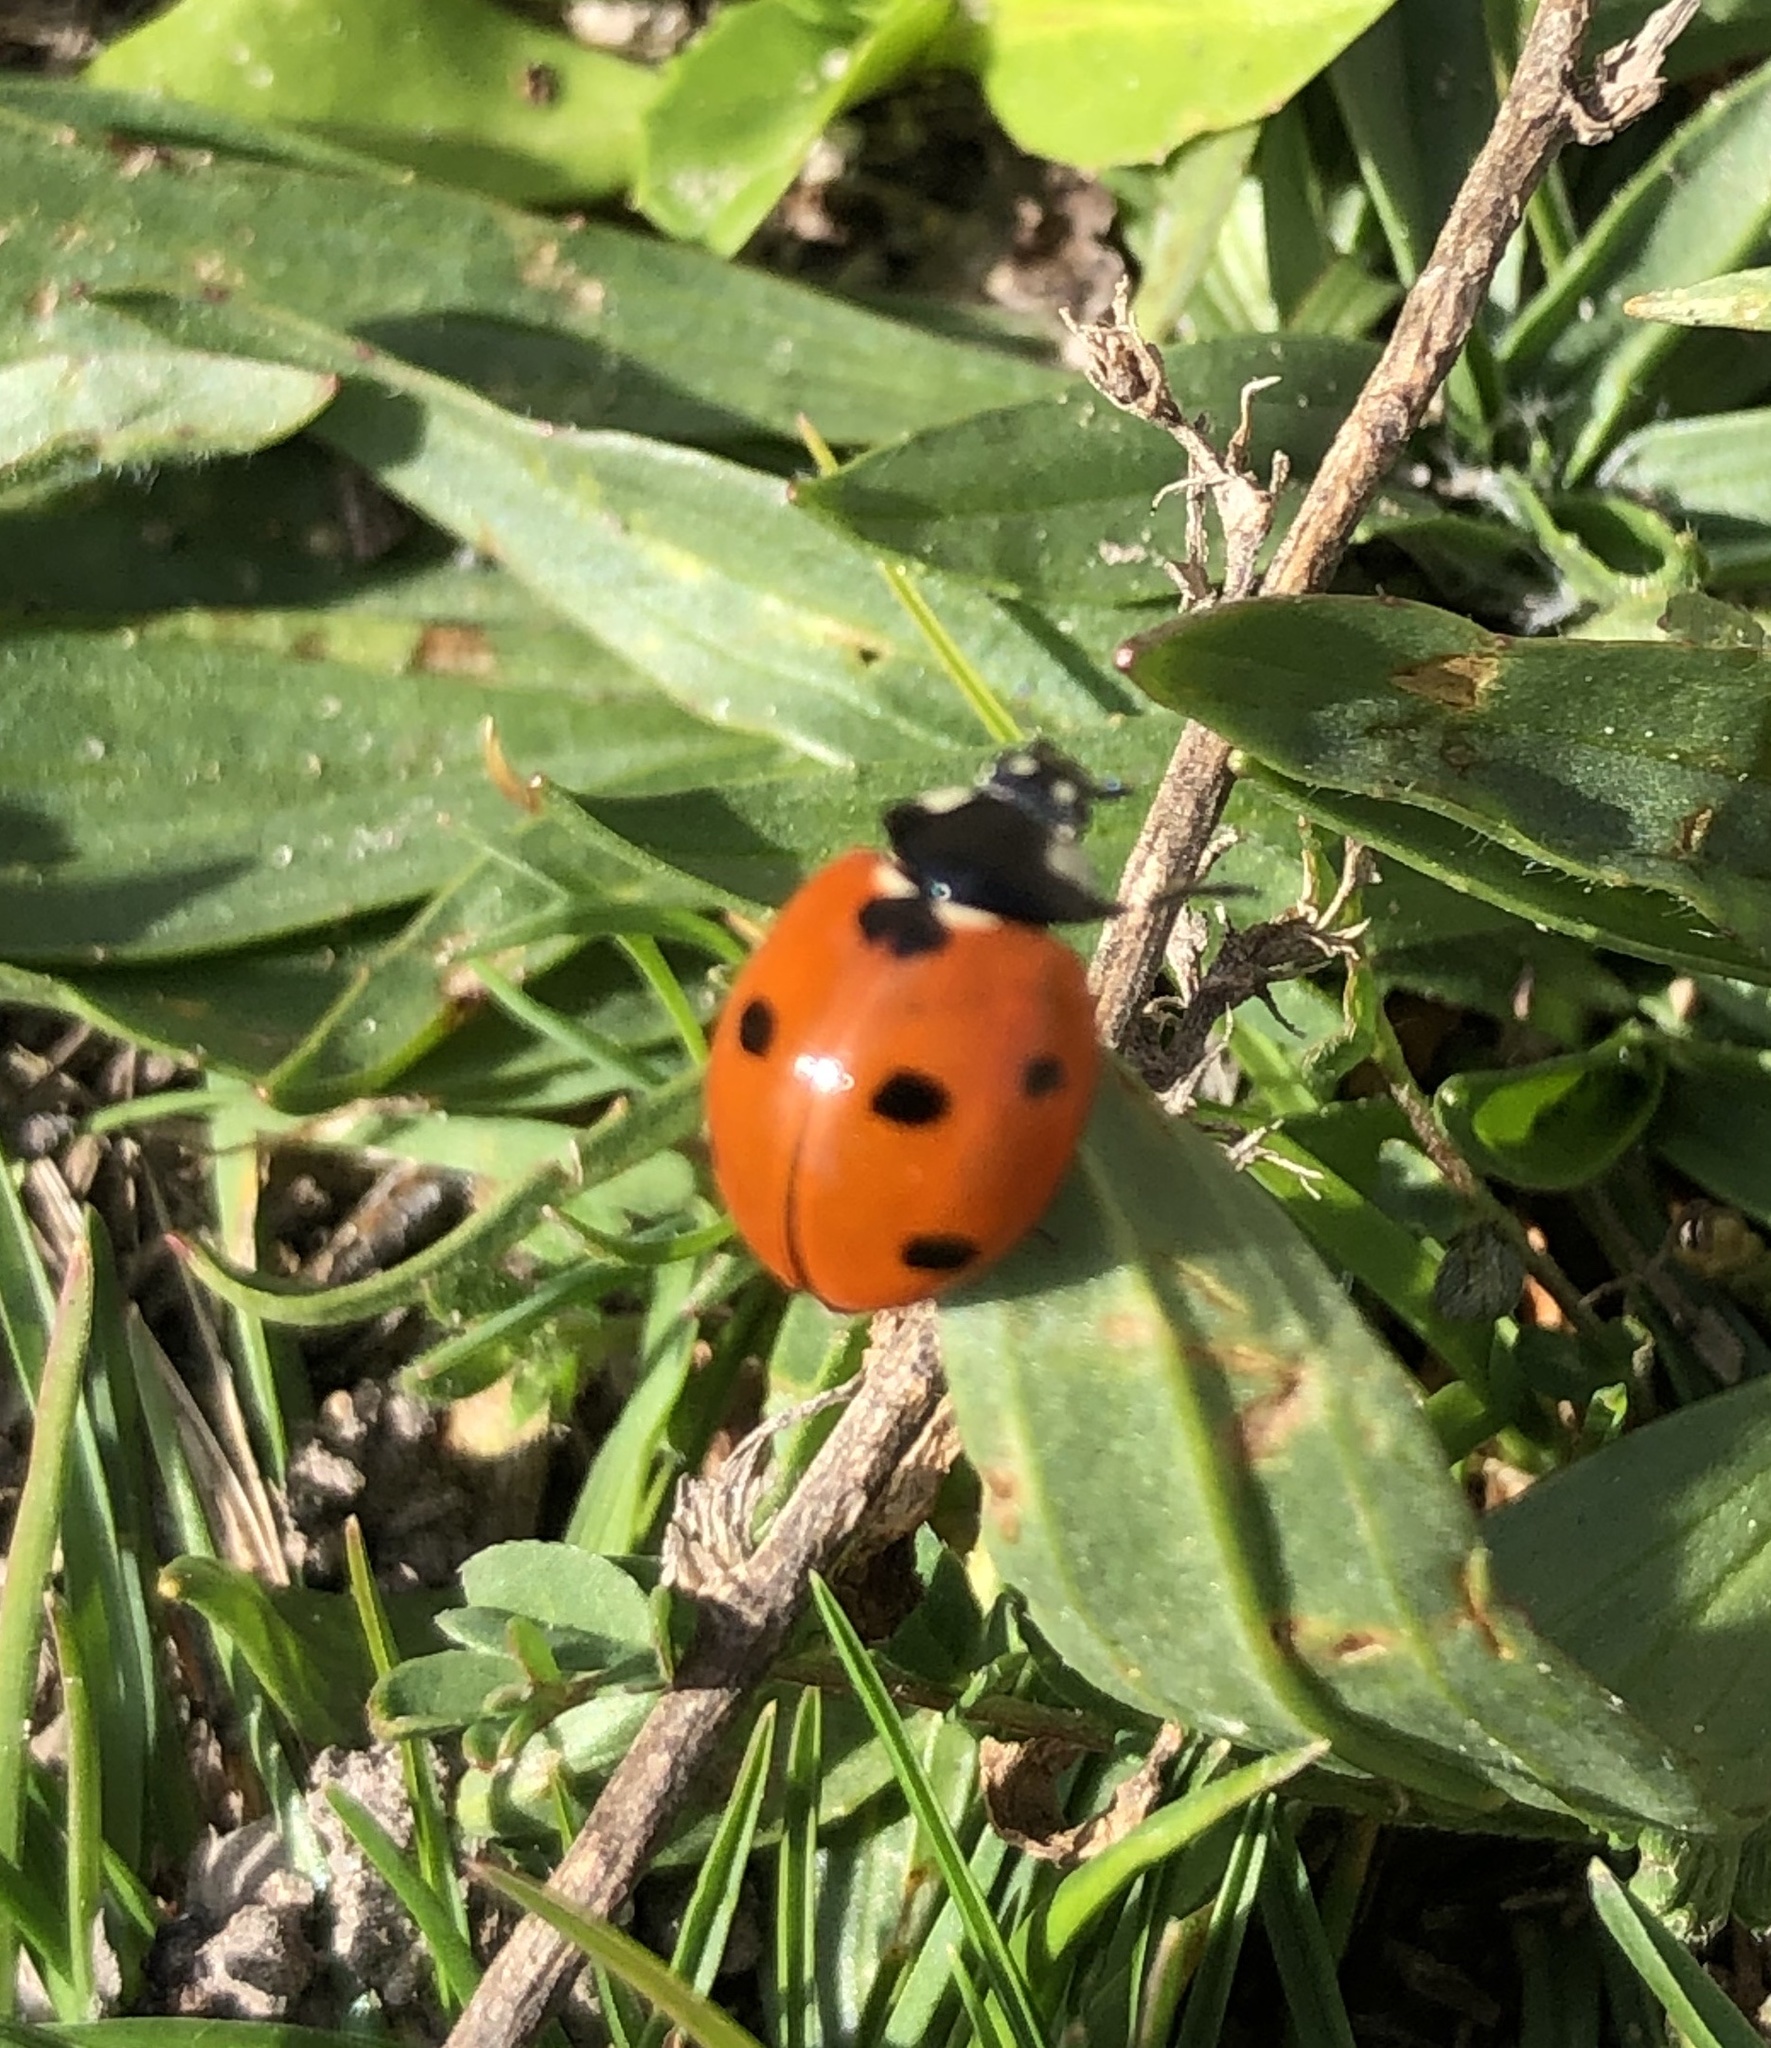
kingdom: Animalia
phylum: Arthropoda
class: Insecta
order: Coleoptera
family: Coccinellidae
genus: Coccinella
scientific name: Coccinella septempunctata
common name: Sevenspotted lady beetle
